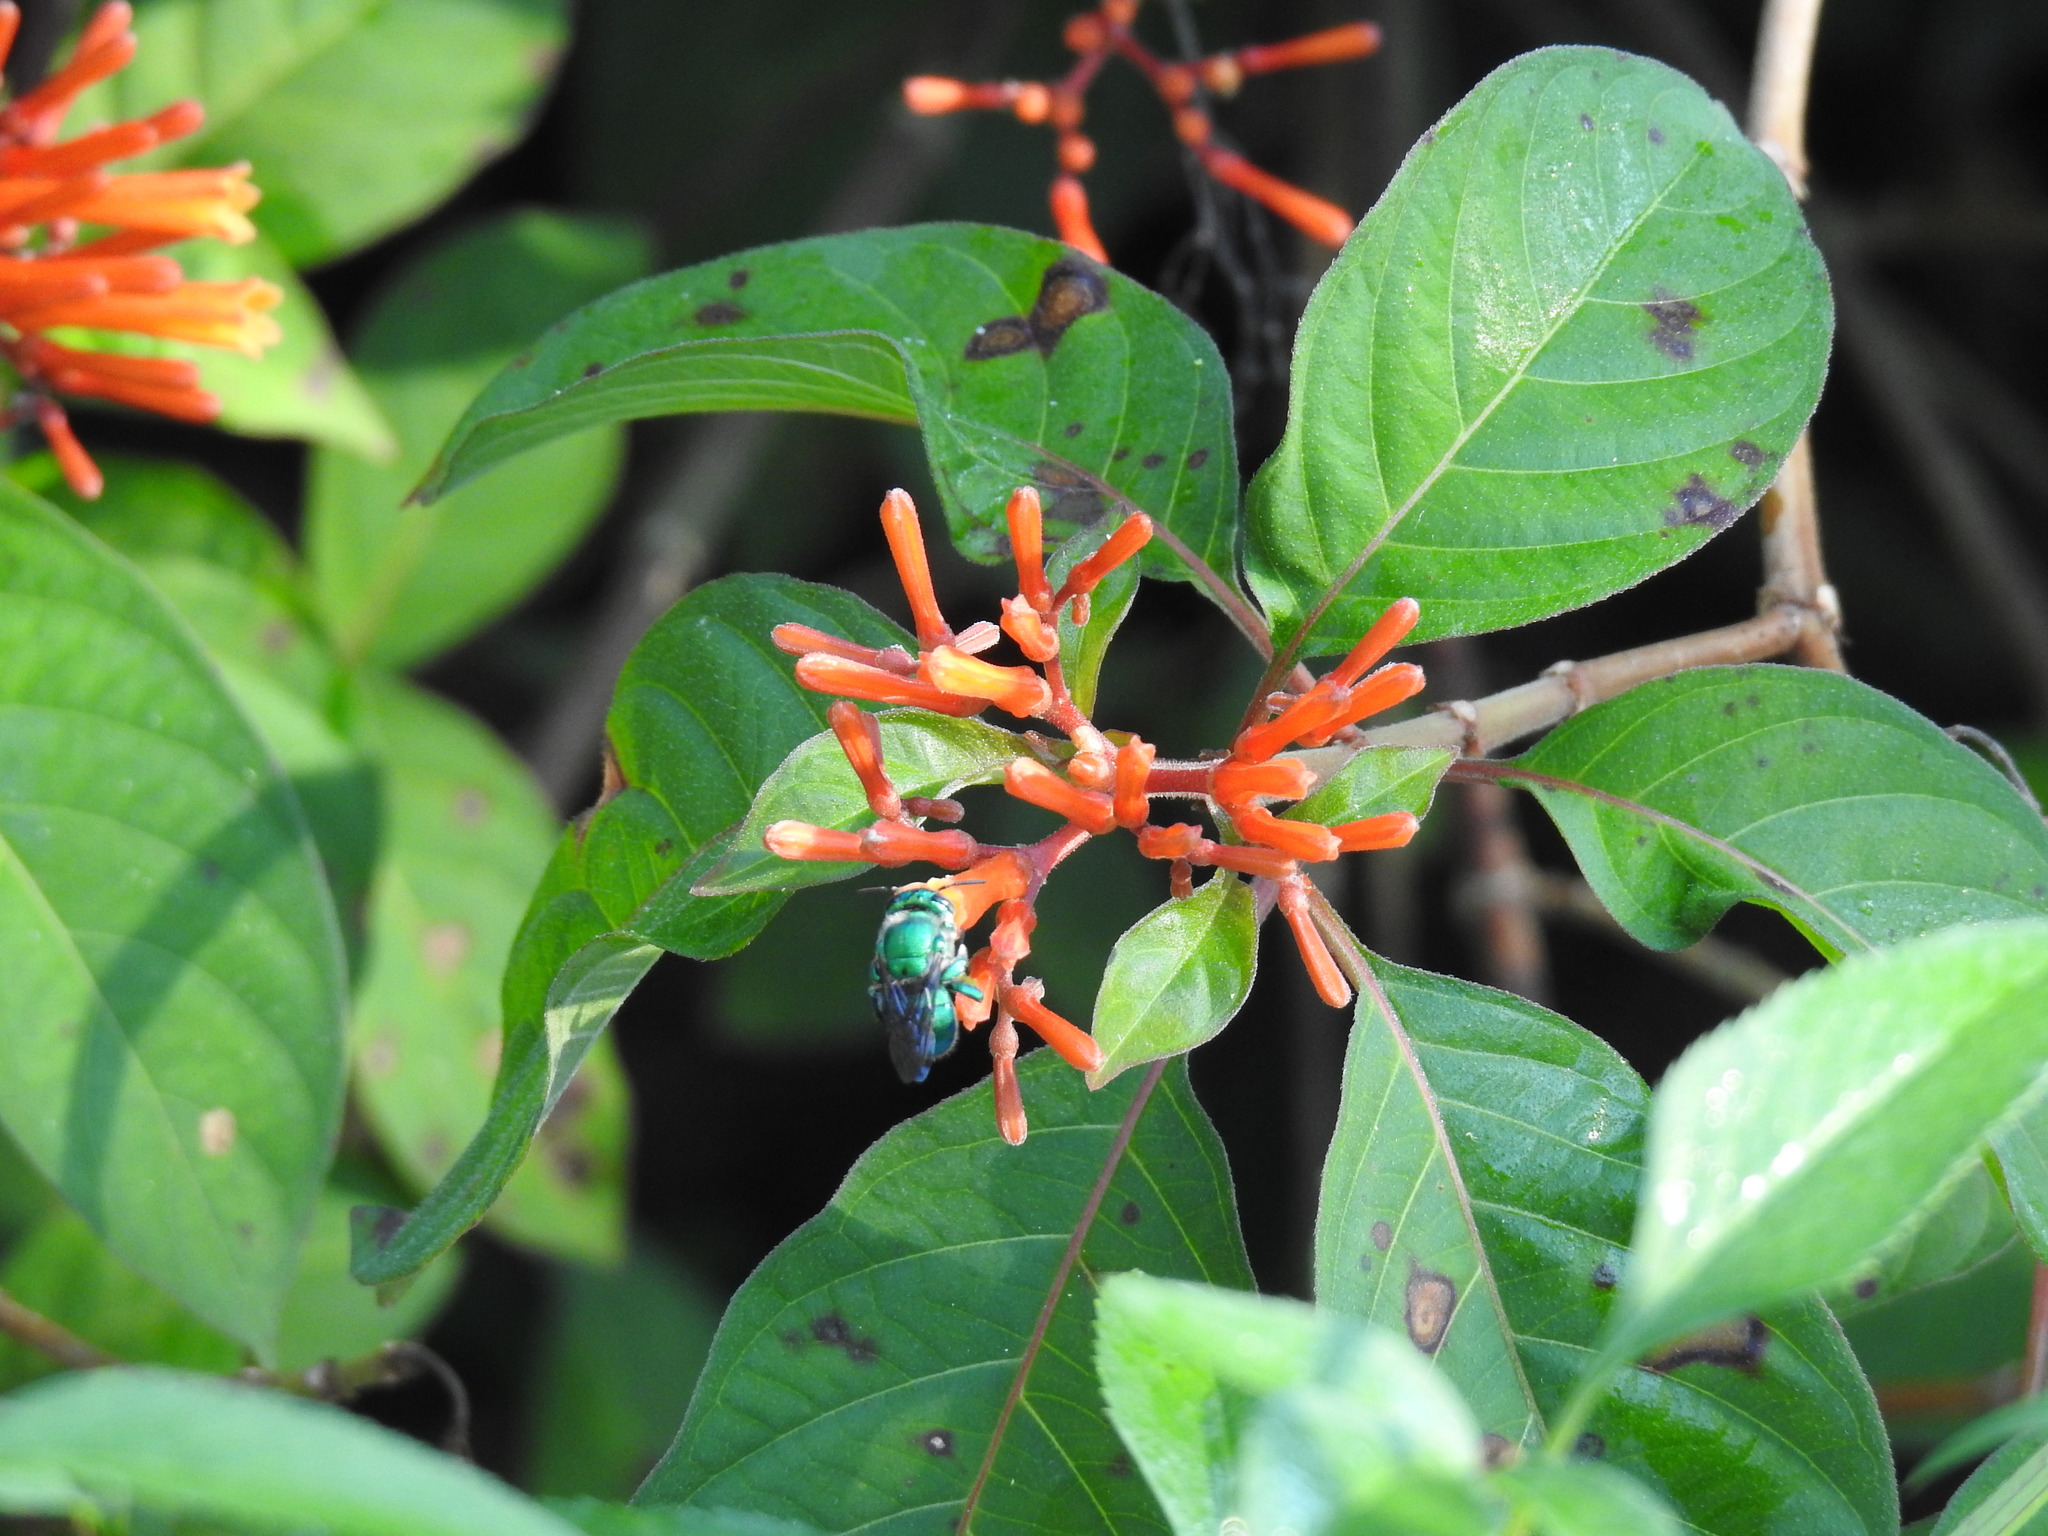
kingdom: Animalia
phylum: Arthropoda
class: Insecta
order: Hymenoptera
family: Apidae
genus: Euglossa
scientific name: Euglossa dilemma
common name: Green orchid bee
